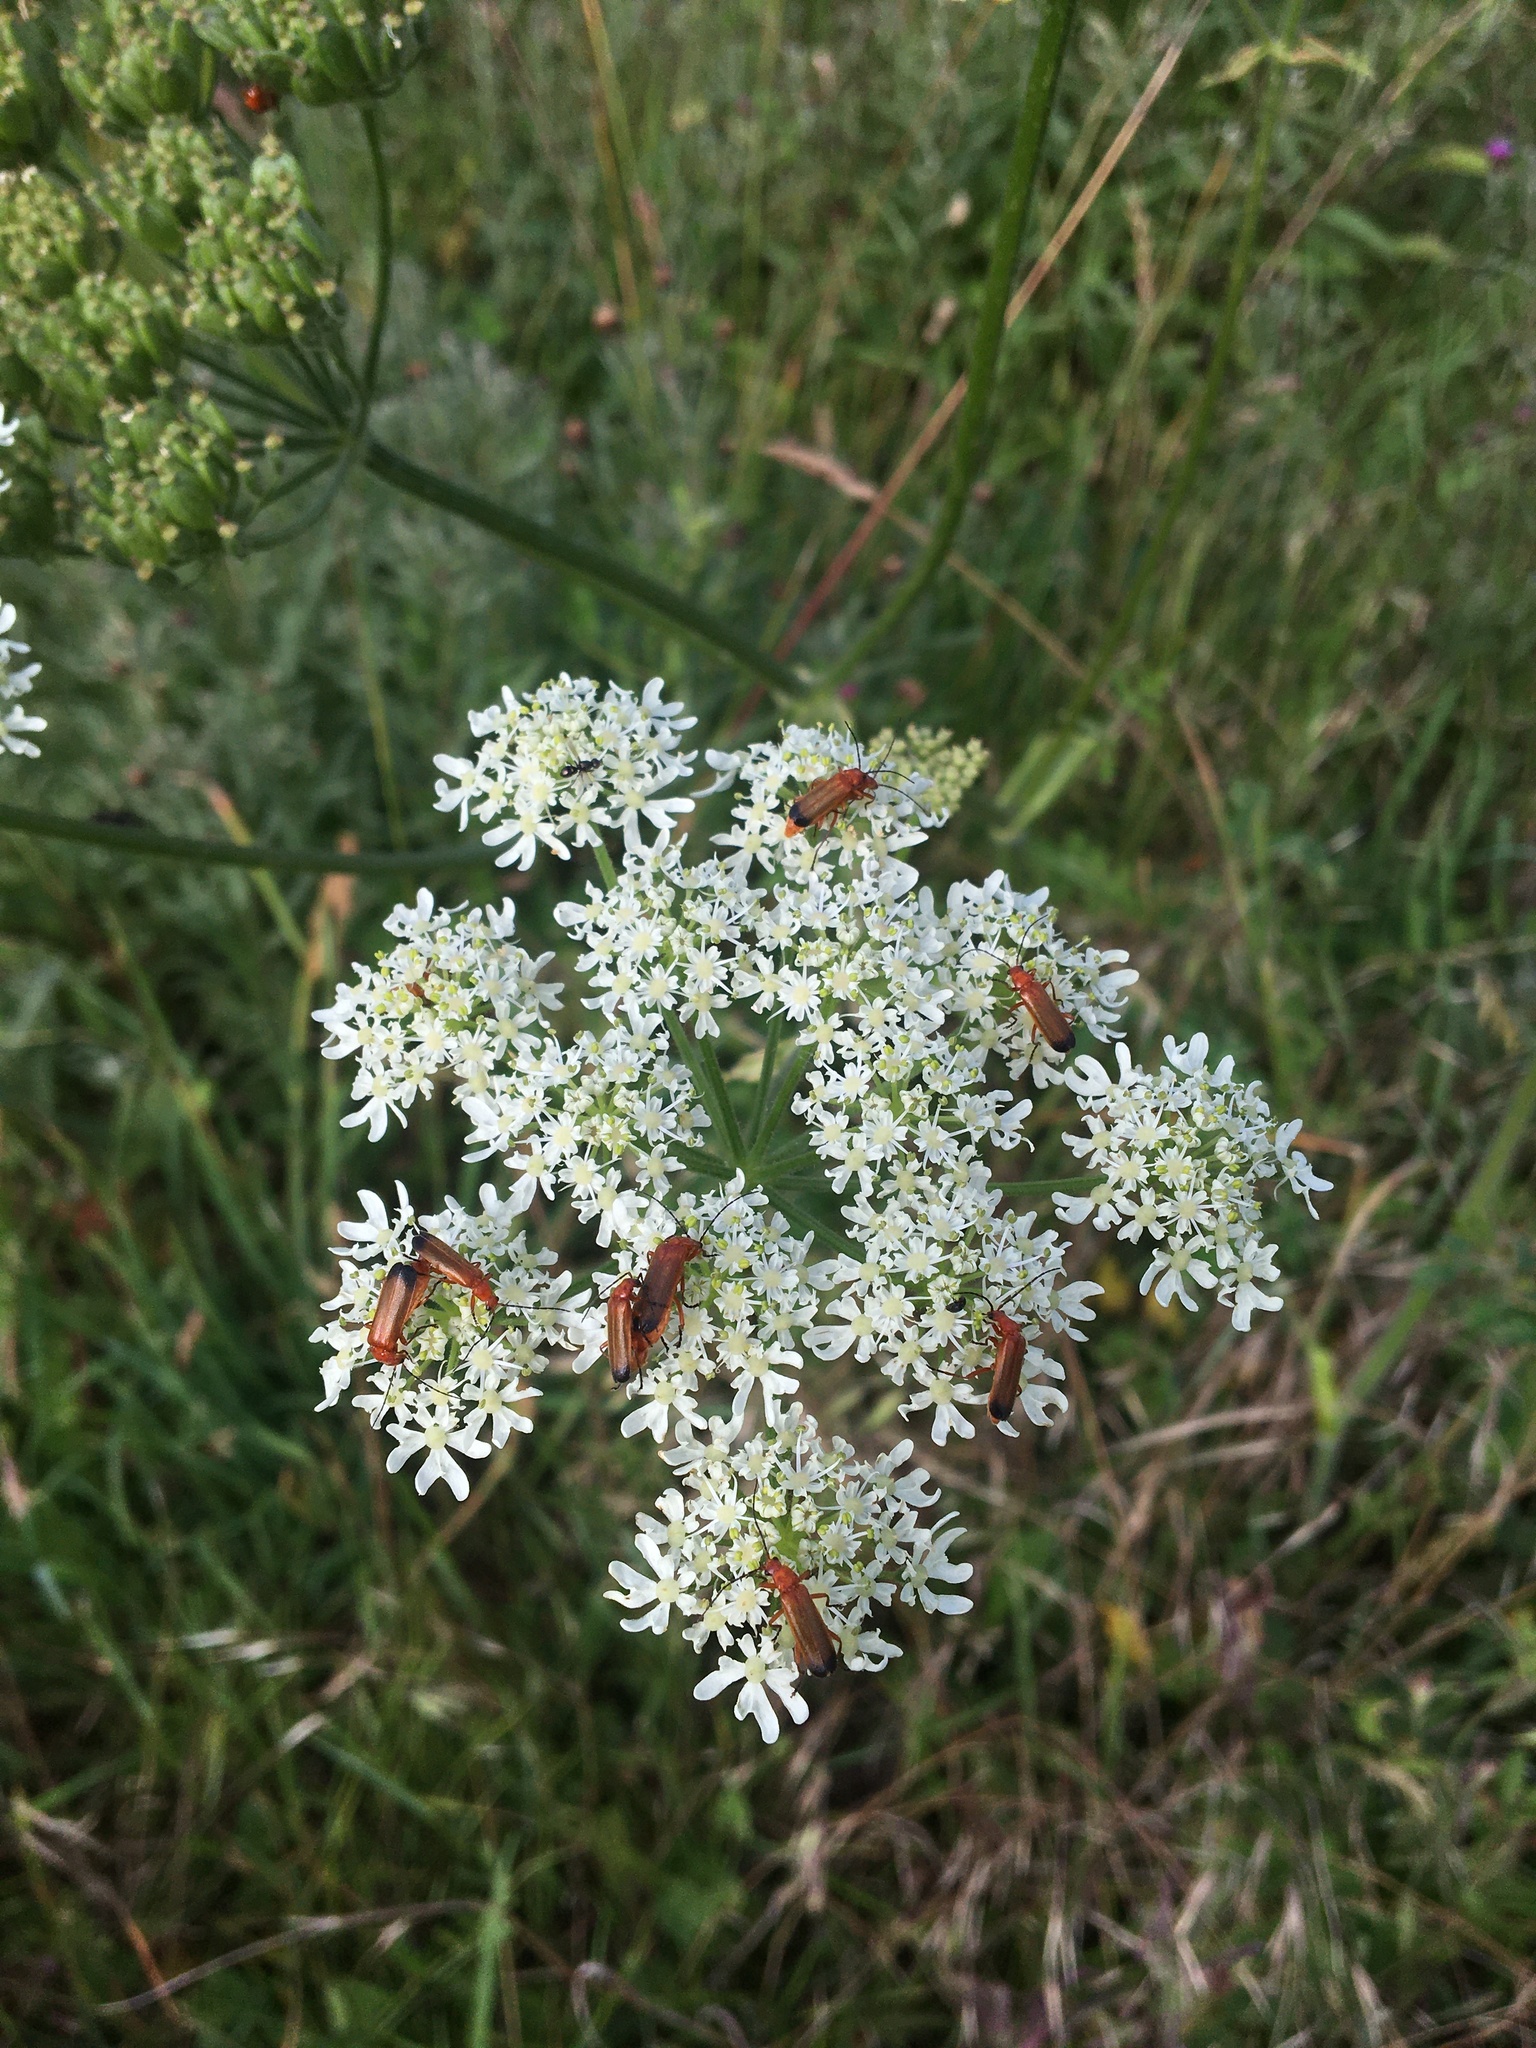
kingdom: Animalia
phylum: Arthropoda
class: Insecta
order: Coleoptera
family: Cantharidae
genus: Rhagonycha
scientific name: Rhagonycha fulva
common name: Common red soldier beetle
